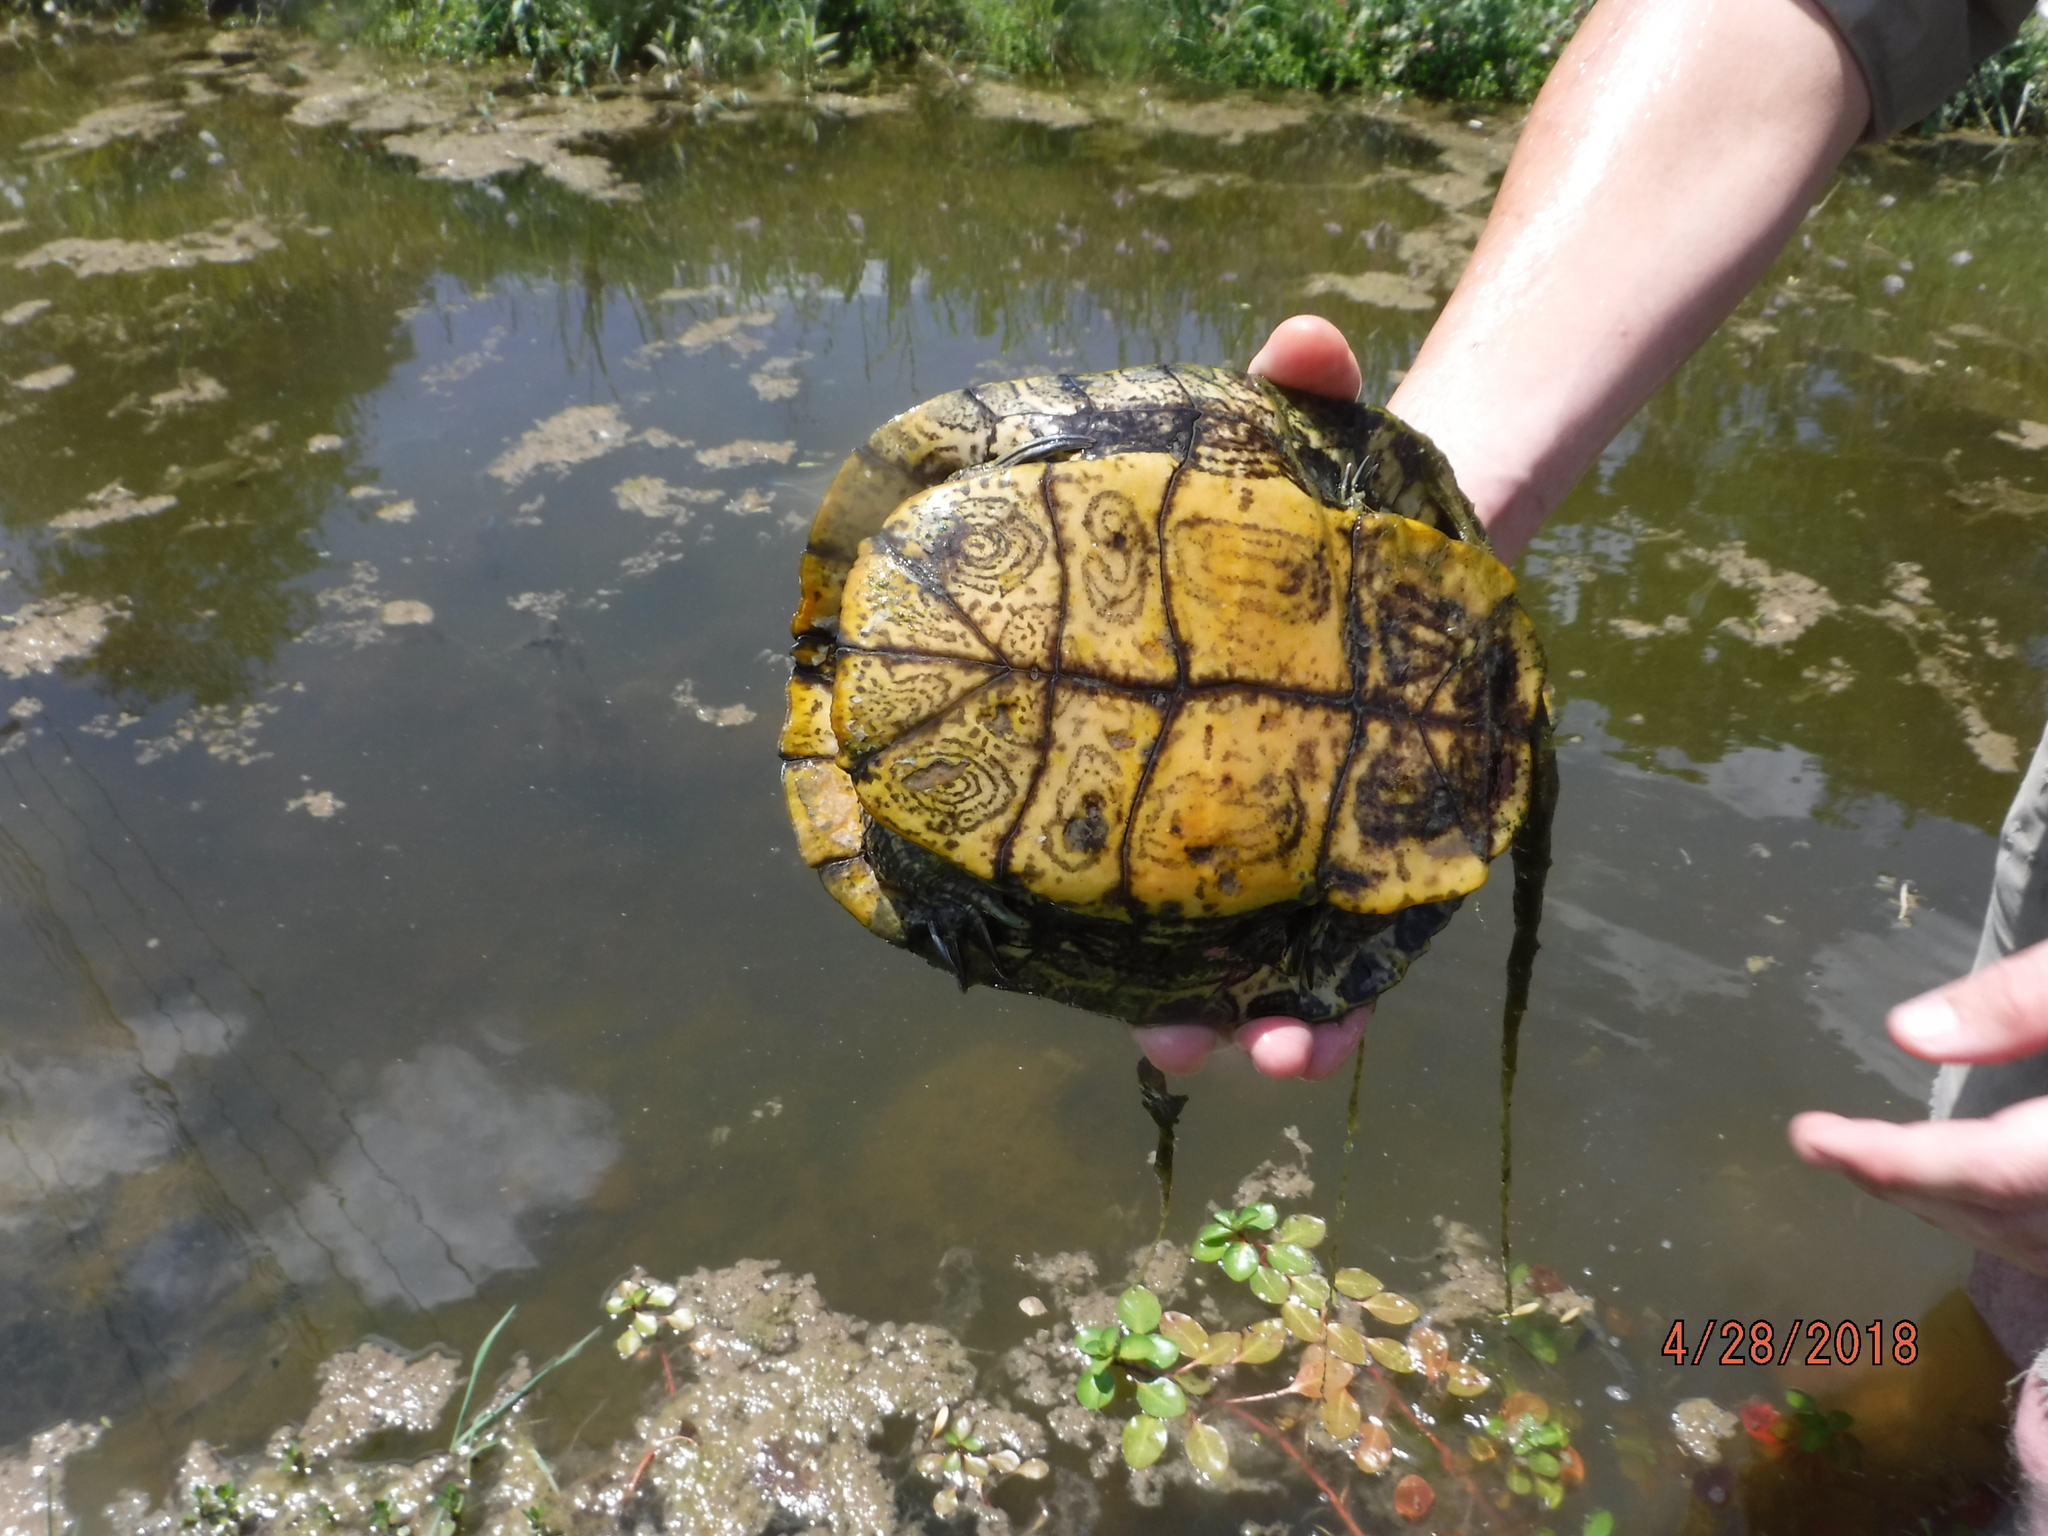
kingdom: Animalia
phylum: Chordata
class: Testudines
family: Emydidae
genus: Trachemys
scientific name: Trachemys scripta
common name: Slider
